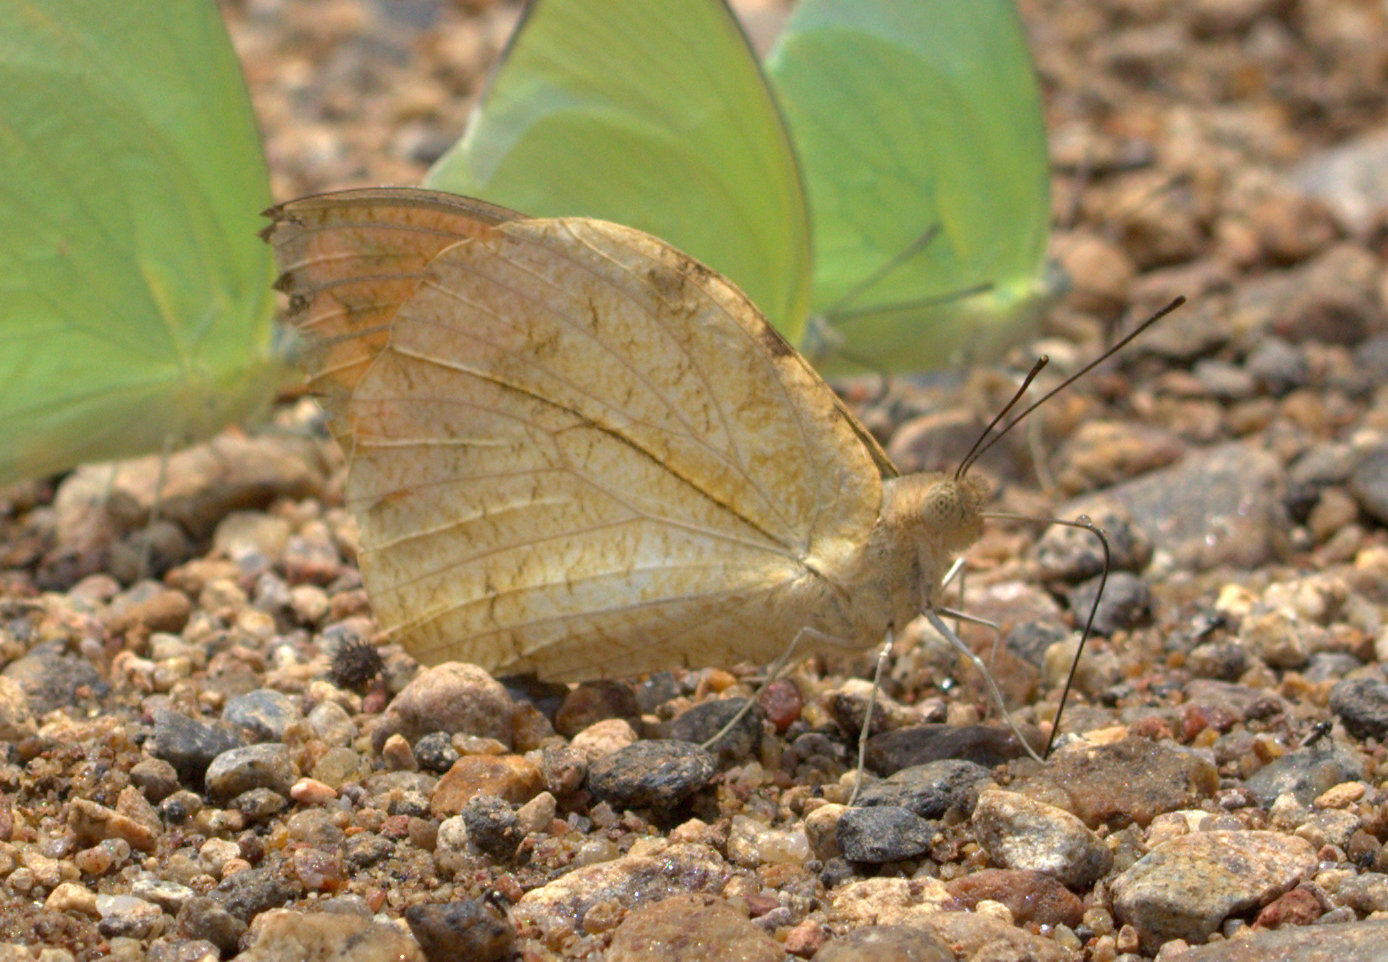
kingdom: Animalia
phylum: Arthropoda
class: Insecta
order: Lepidoptera
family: Pieridae
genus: Hebomoia
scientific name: Hebomoia glaucippe
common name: Great orange tip
